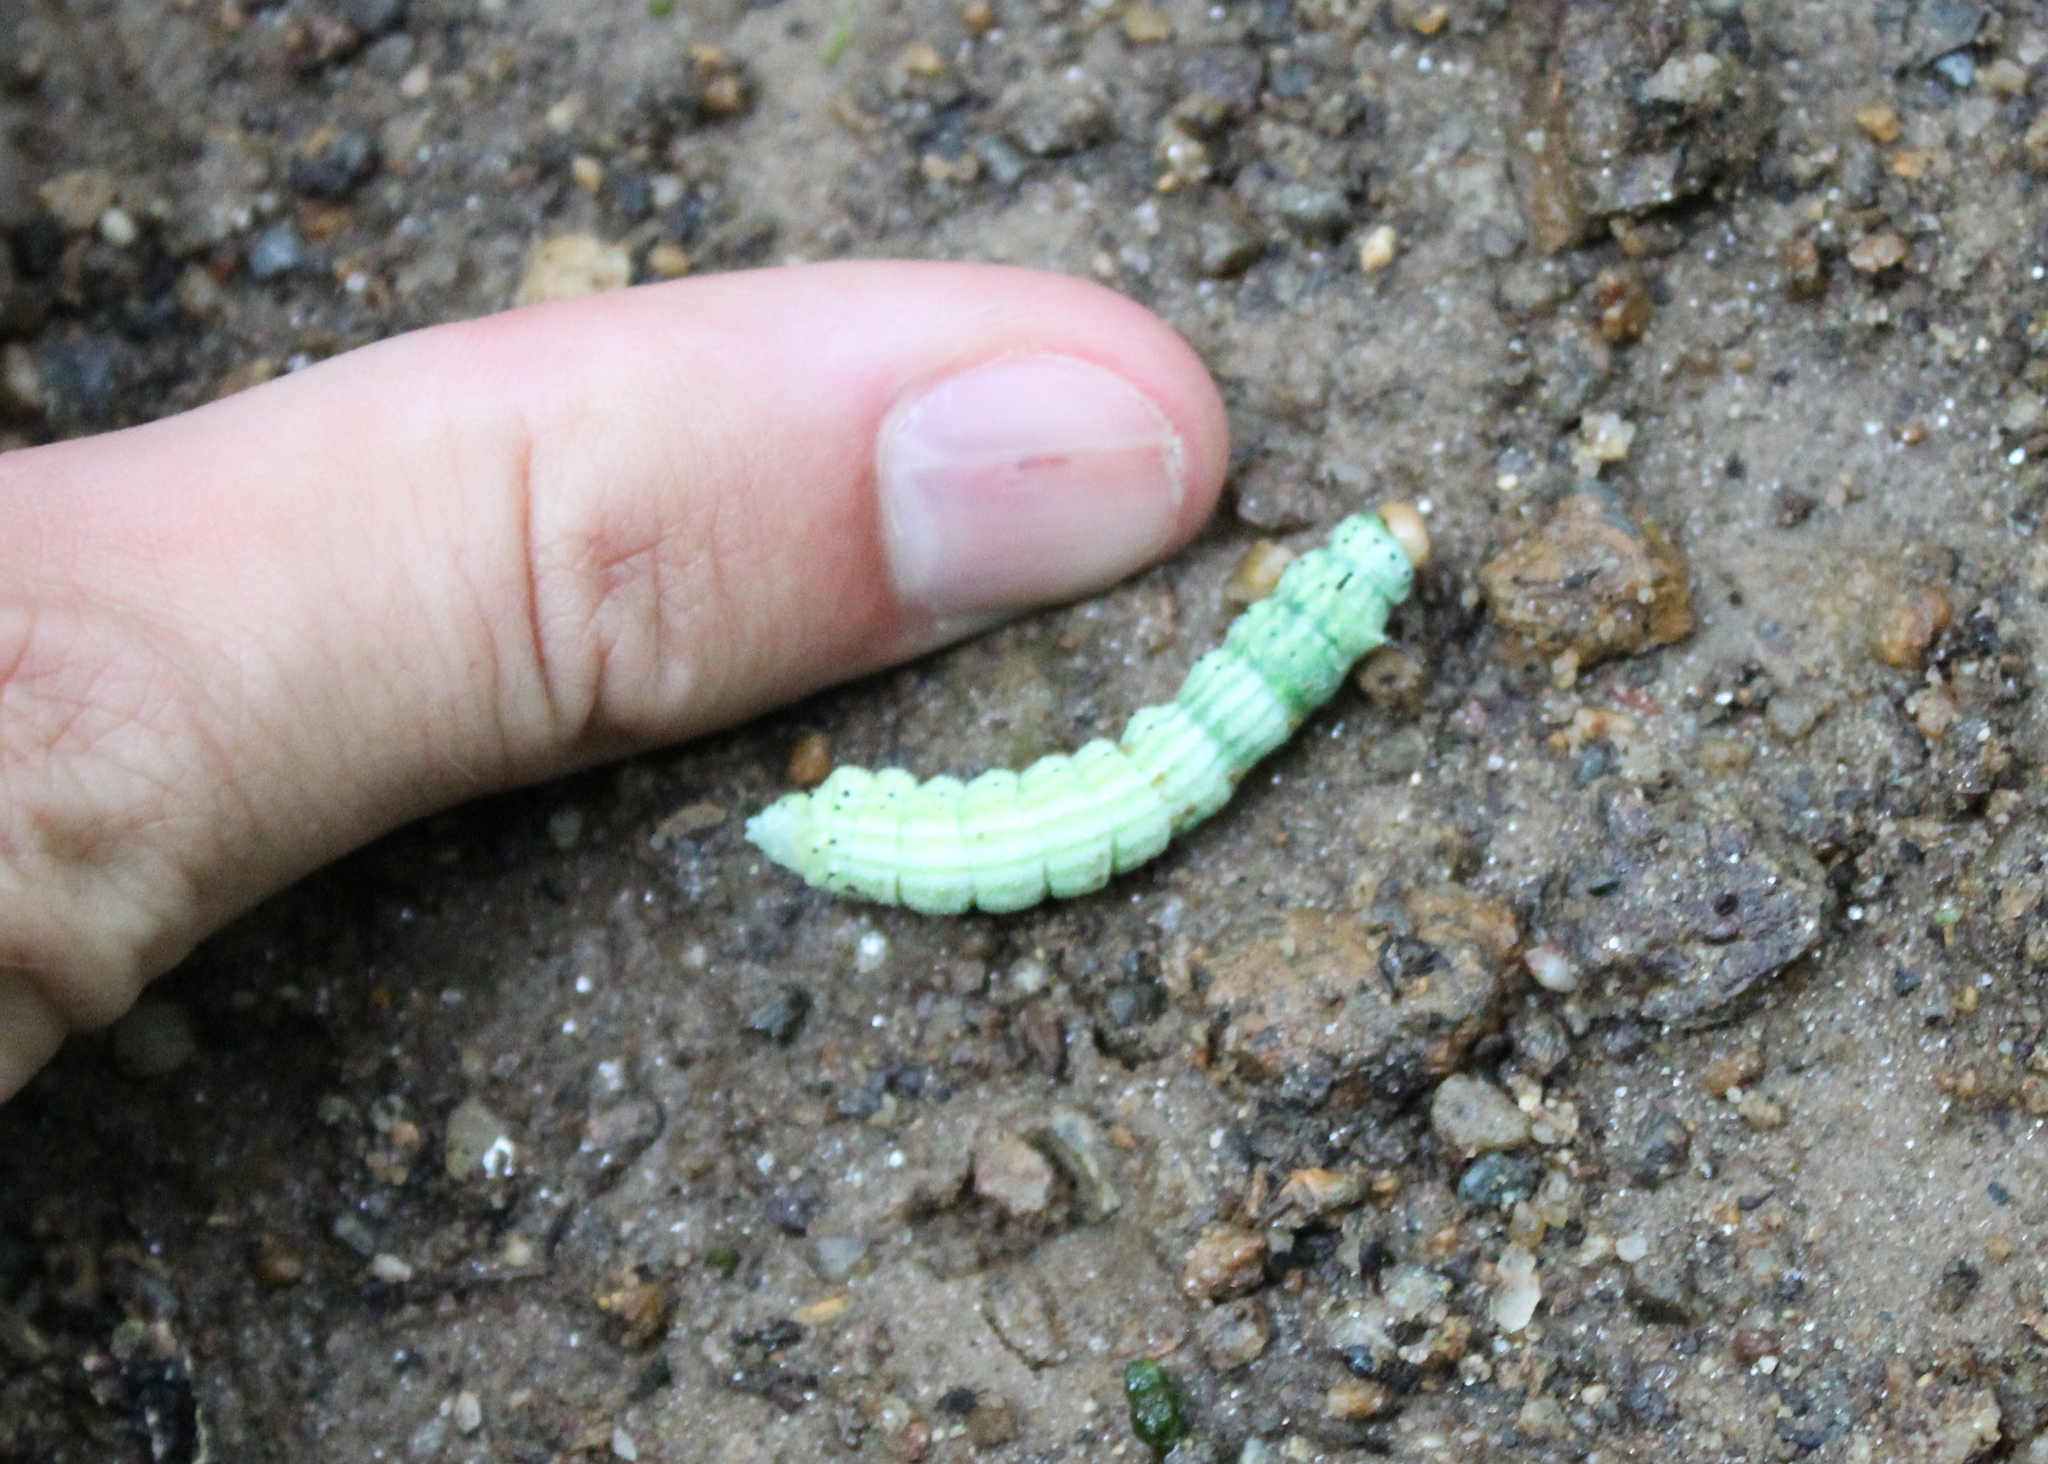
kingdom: Animalia
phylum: Arthropoda
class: Insecta
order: Lepidoptera
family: Saturniidae
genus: Dryocampa
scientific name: Dryocampa rubicunda
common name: Rosy maple moth
